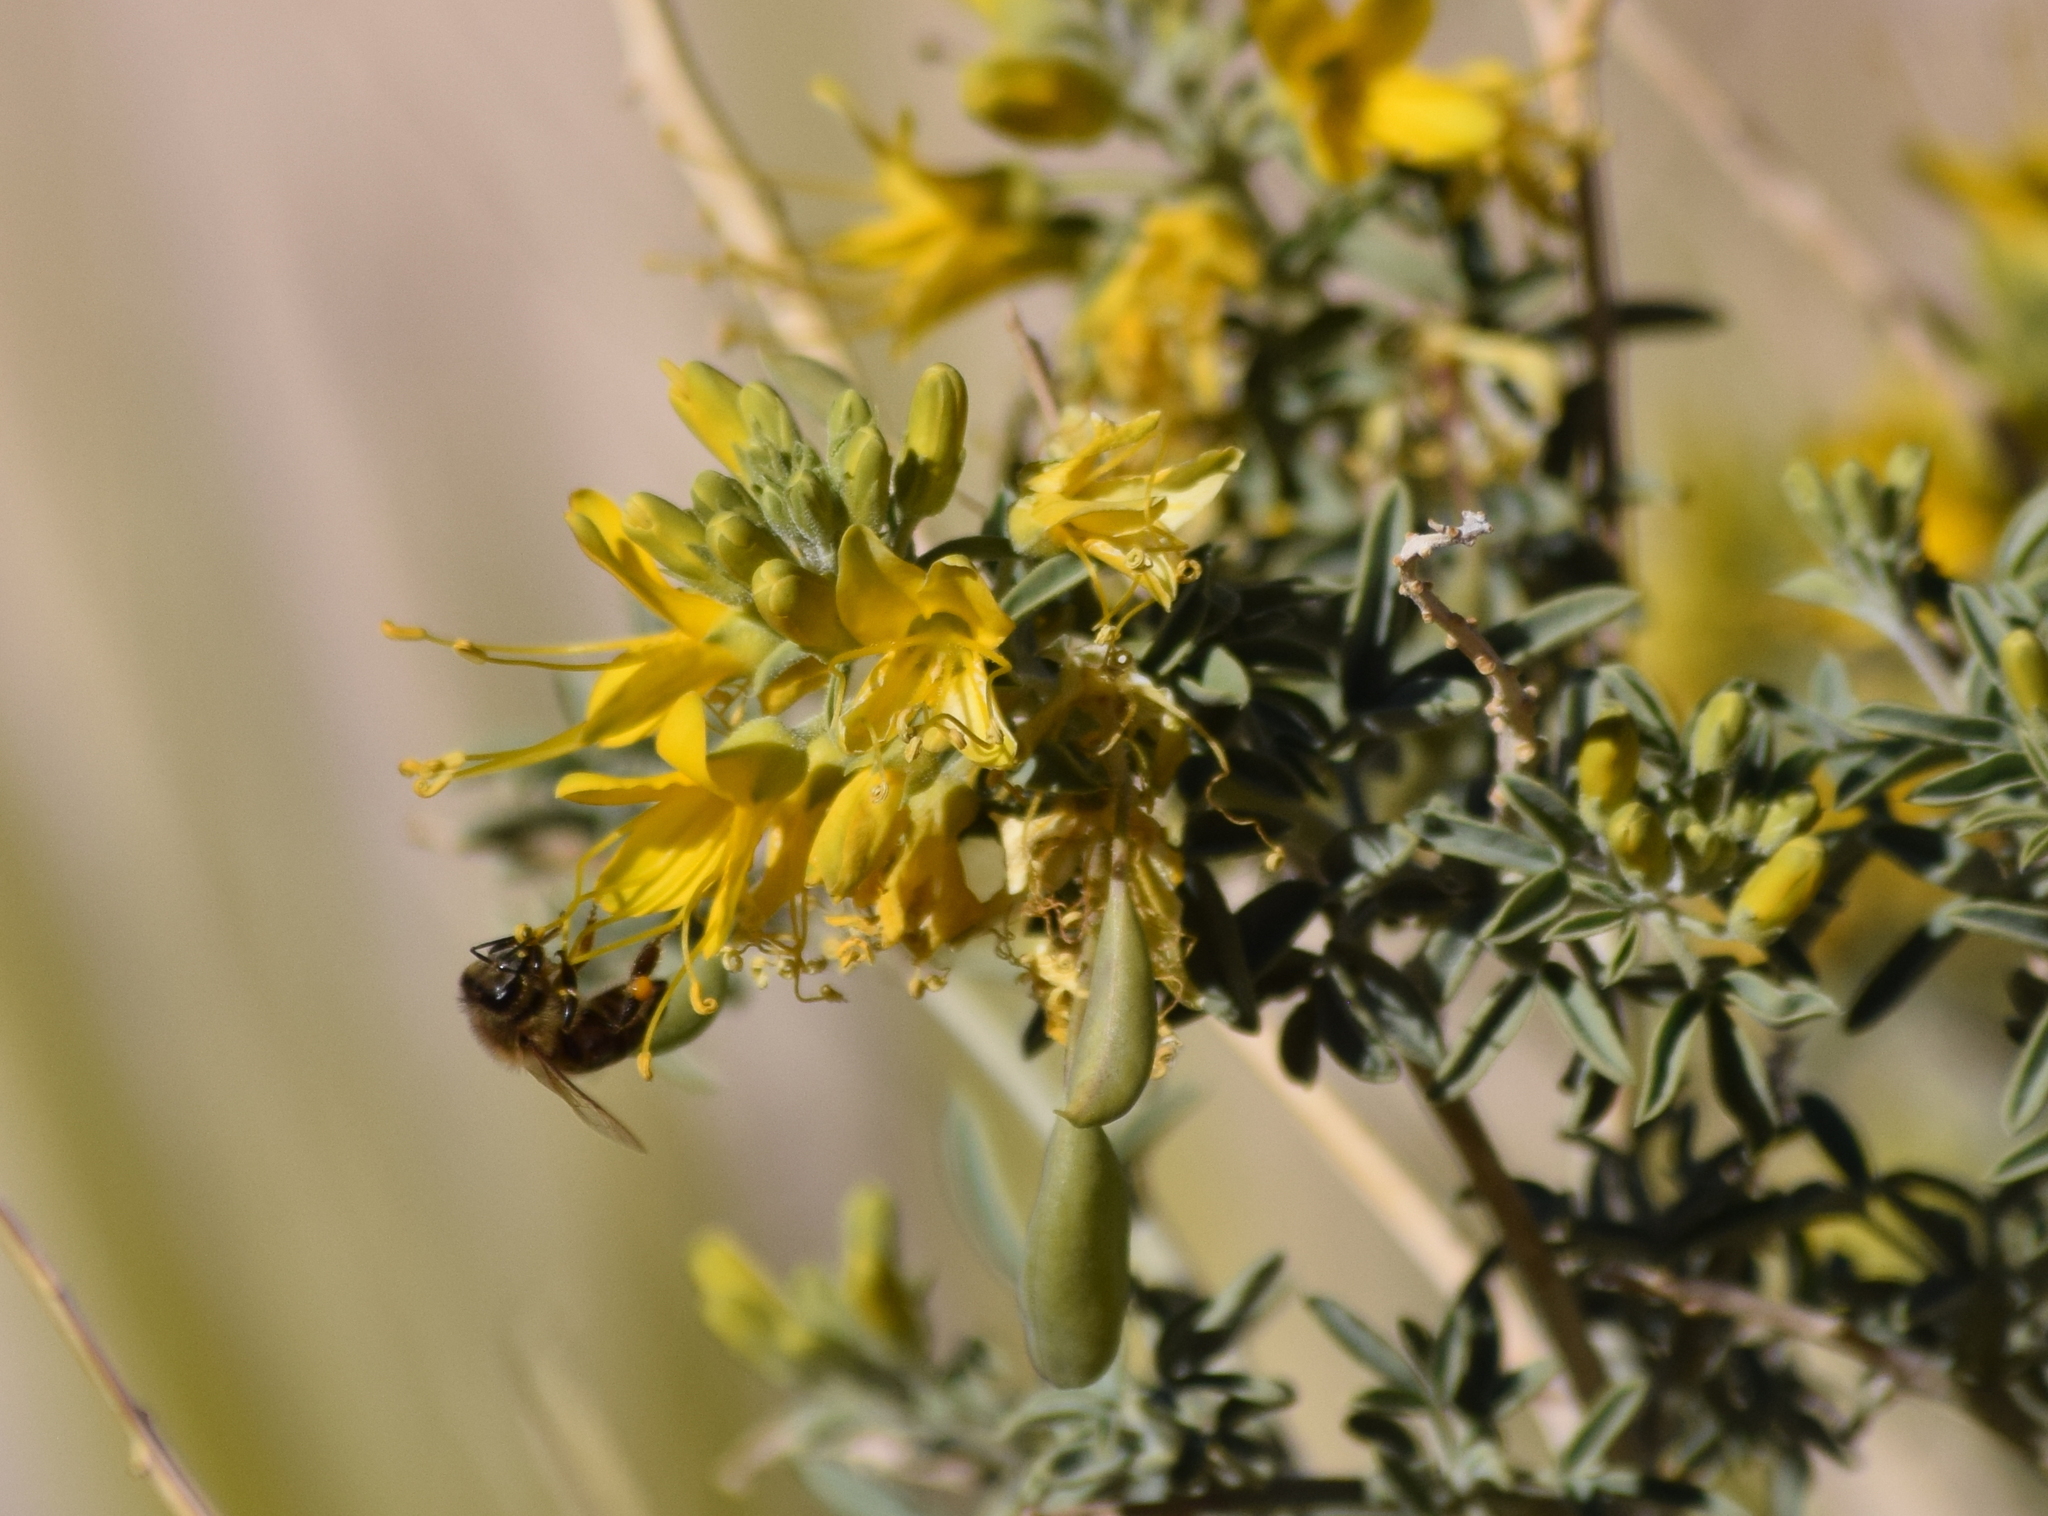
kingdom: Plantae
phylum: Tracheophyta
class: Magnoliopsida
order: Brassicales
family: Cleomaceae
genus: Cleomella
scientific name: Cleomella arborea
